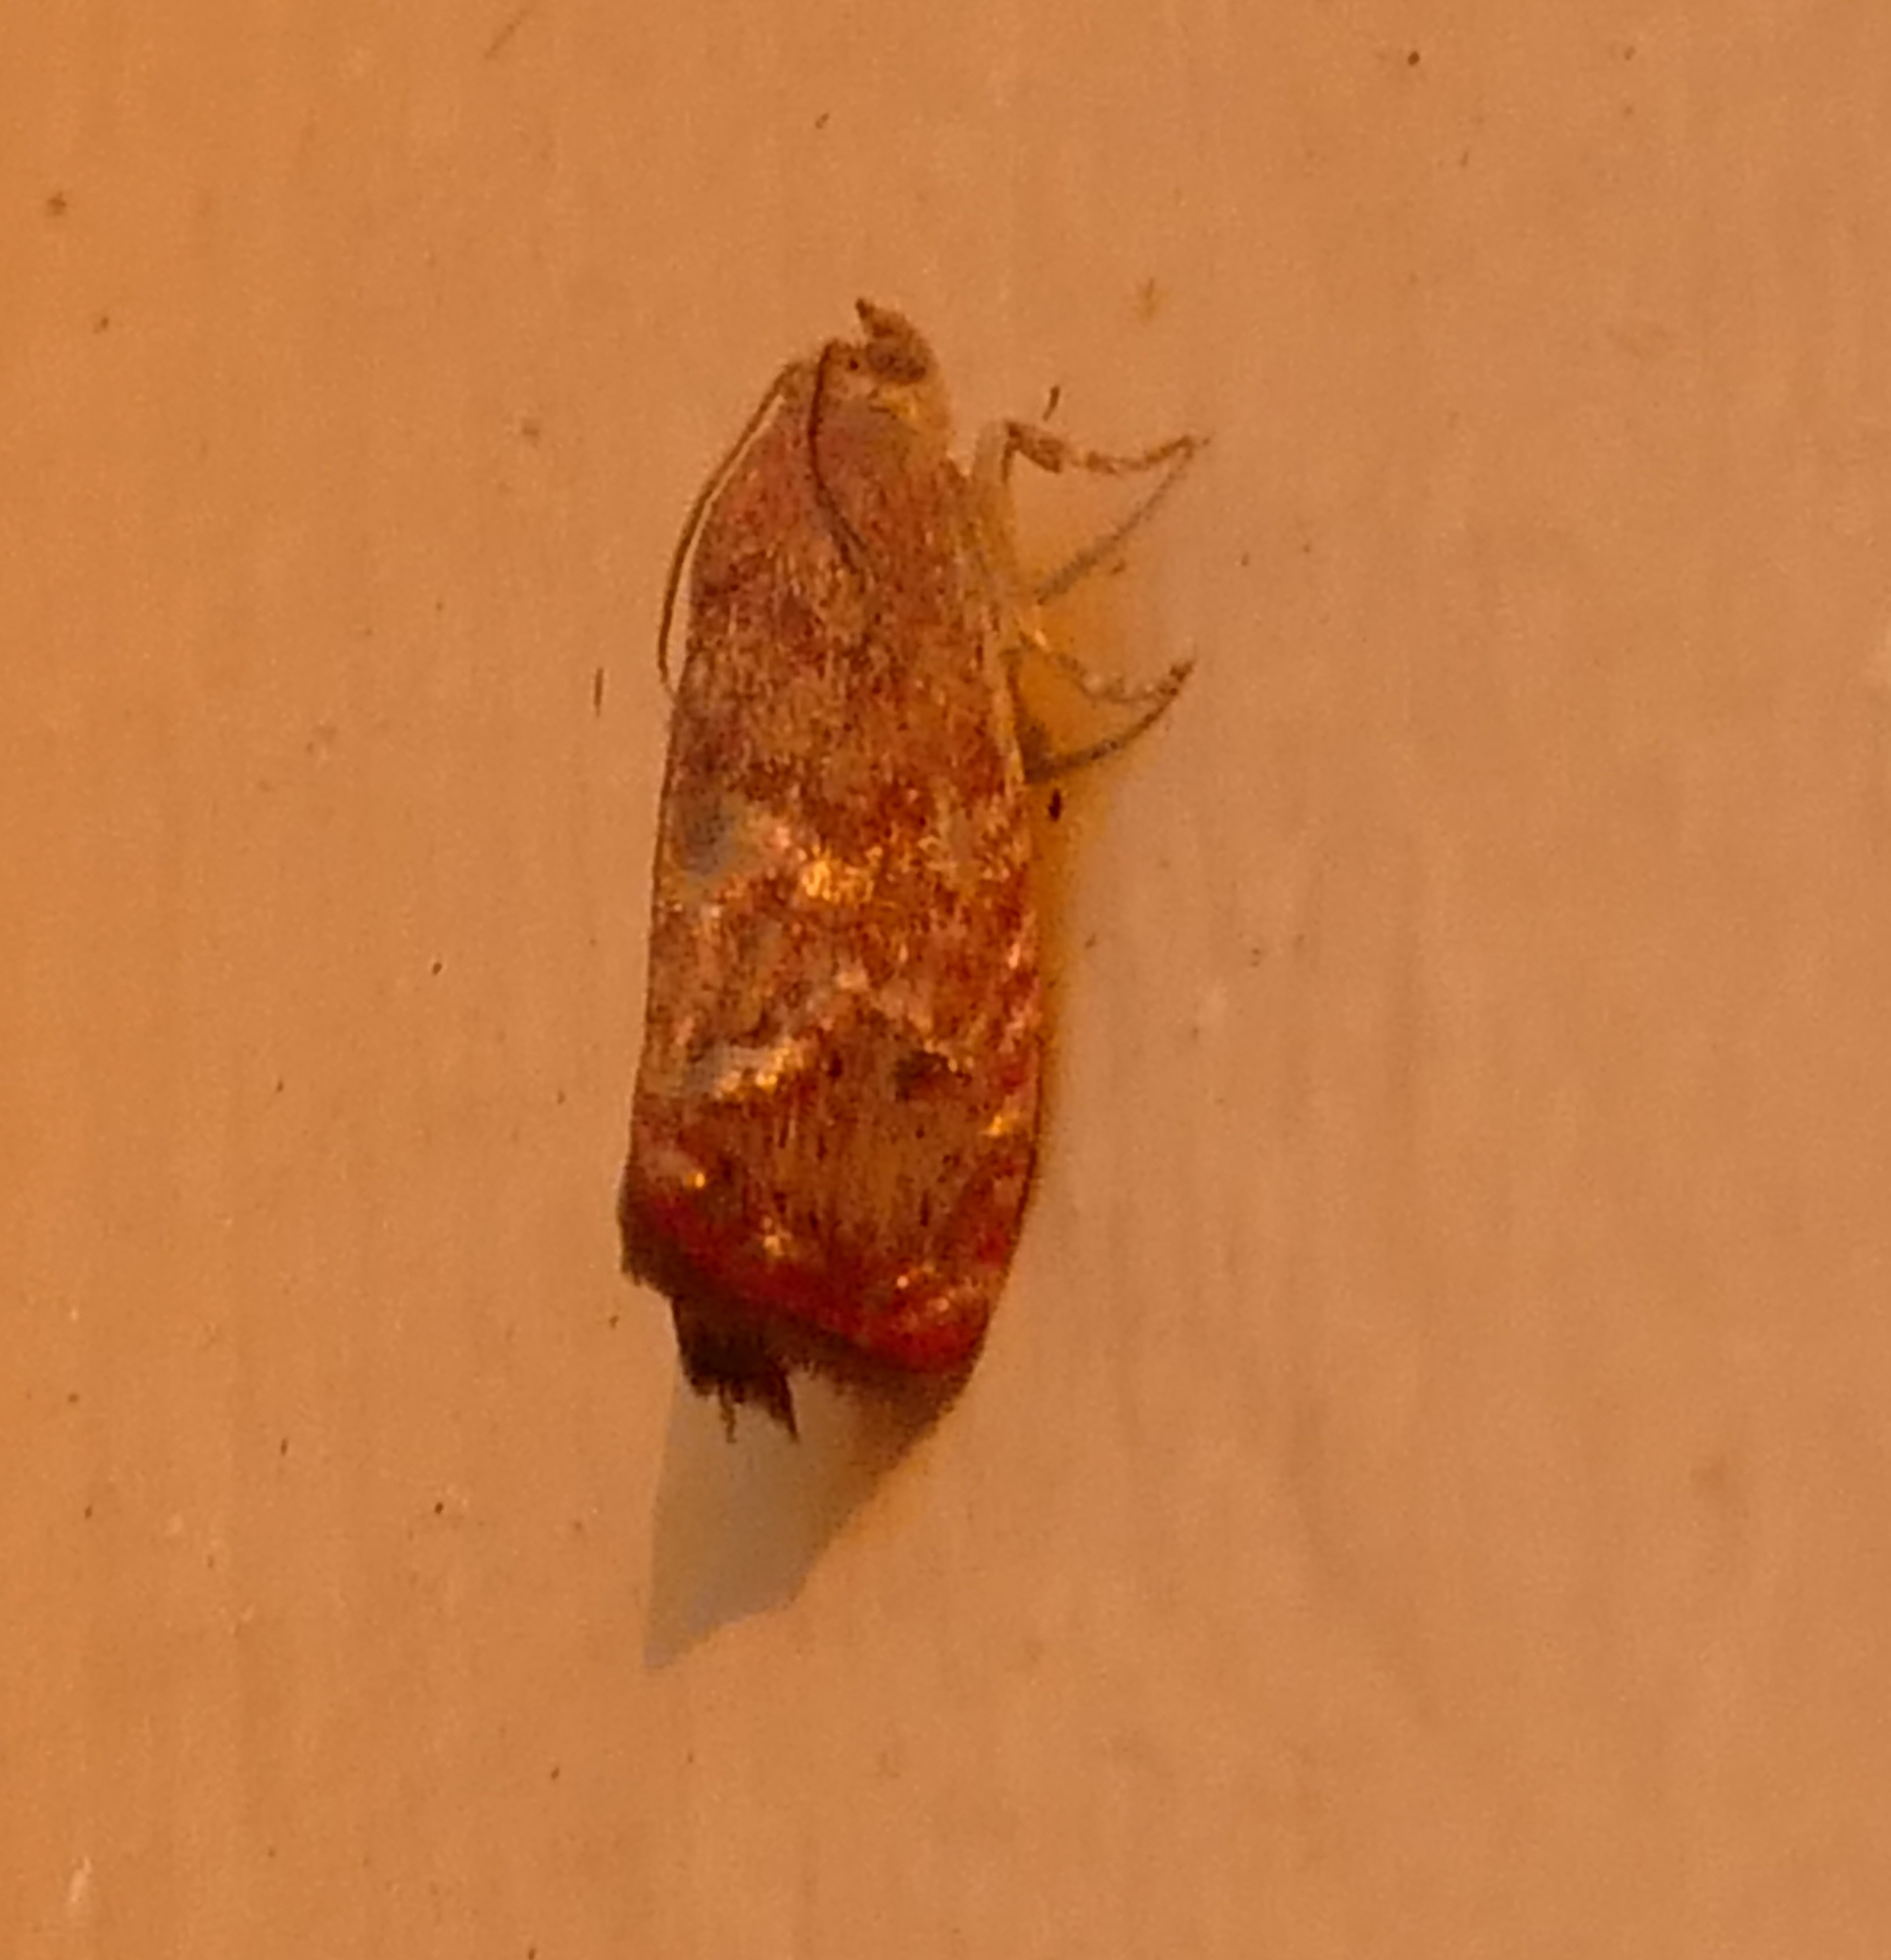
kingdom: Animalia
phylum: Arthropoda
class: Insecta
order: Lepidoptera
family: Tortricidae
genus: Cydia
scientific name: Cydia latiferreana
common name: Filbertworm moth
